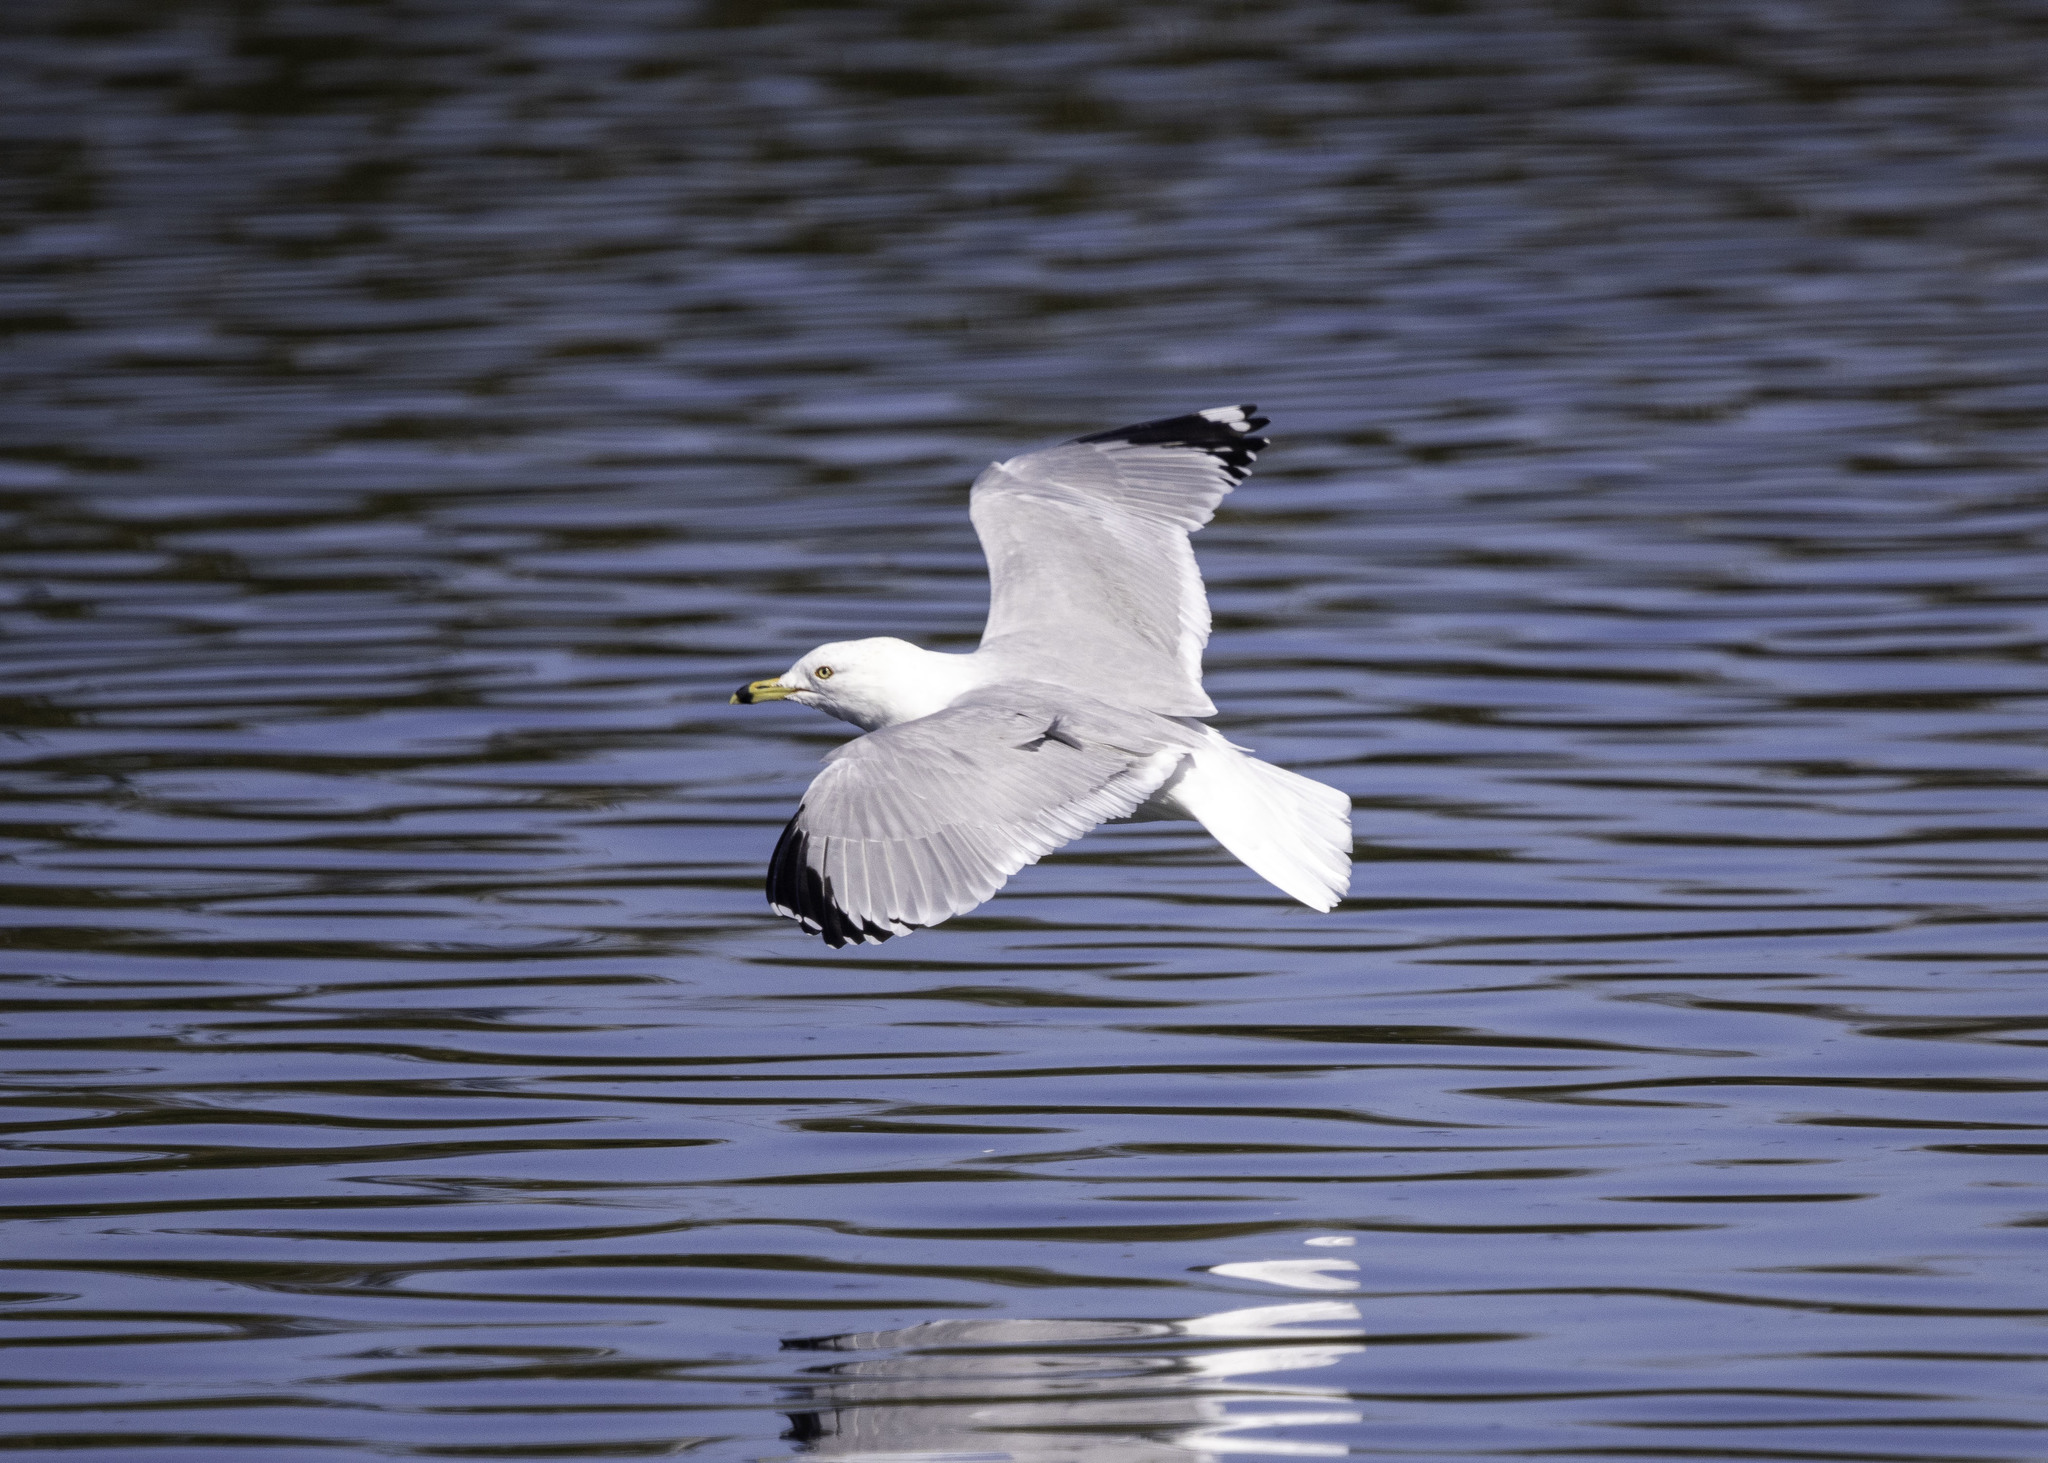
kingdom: Animalia
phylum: Chordata
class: Aves
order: Charadriiformes
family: Laridae
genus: Larus
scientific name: Larus delawarensis
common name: Ring-billed gull
